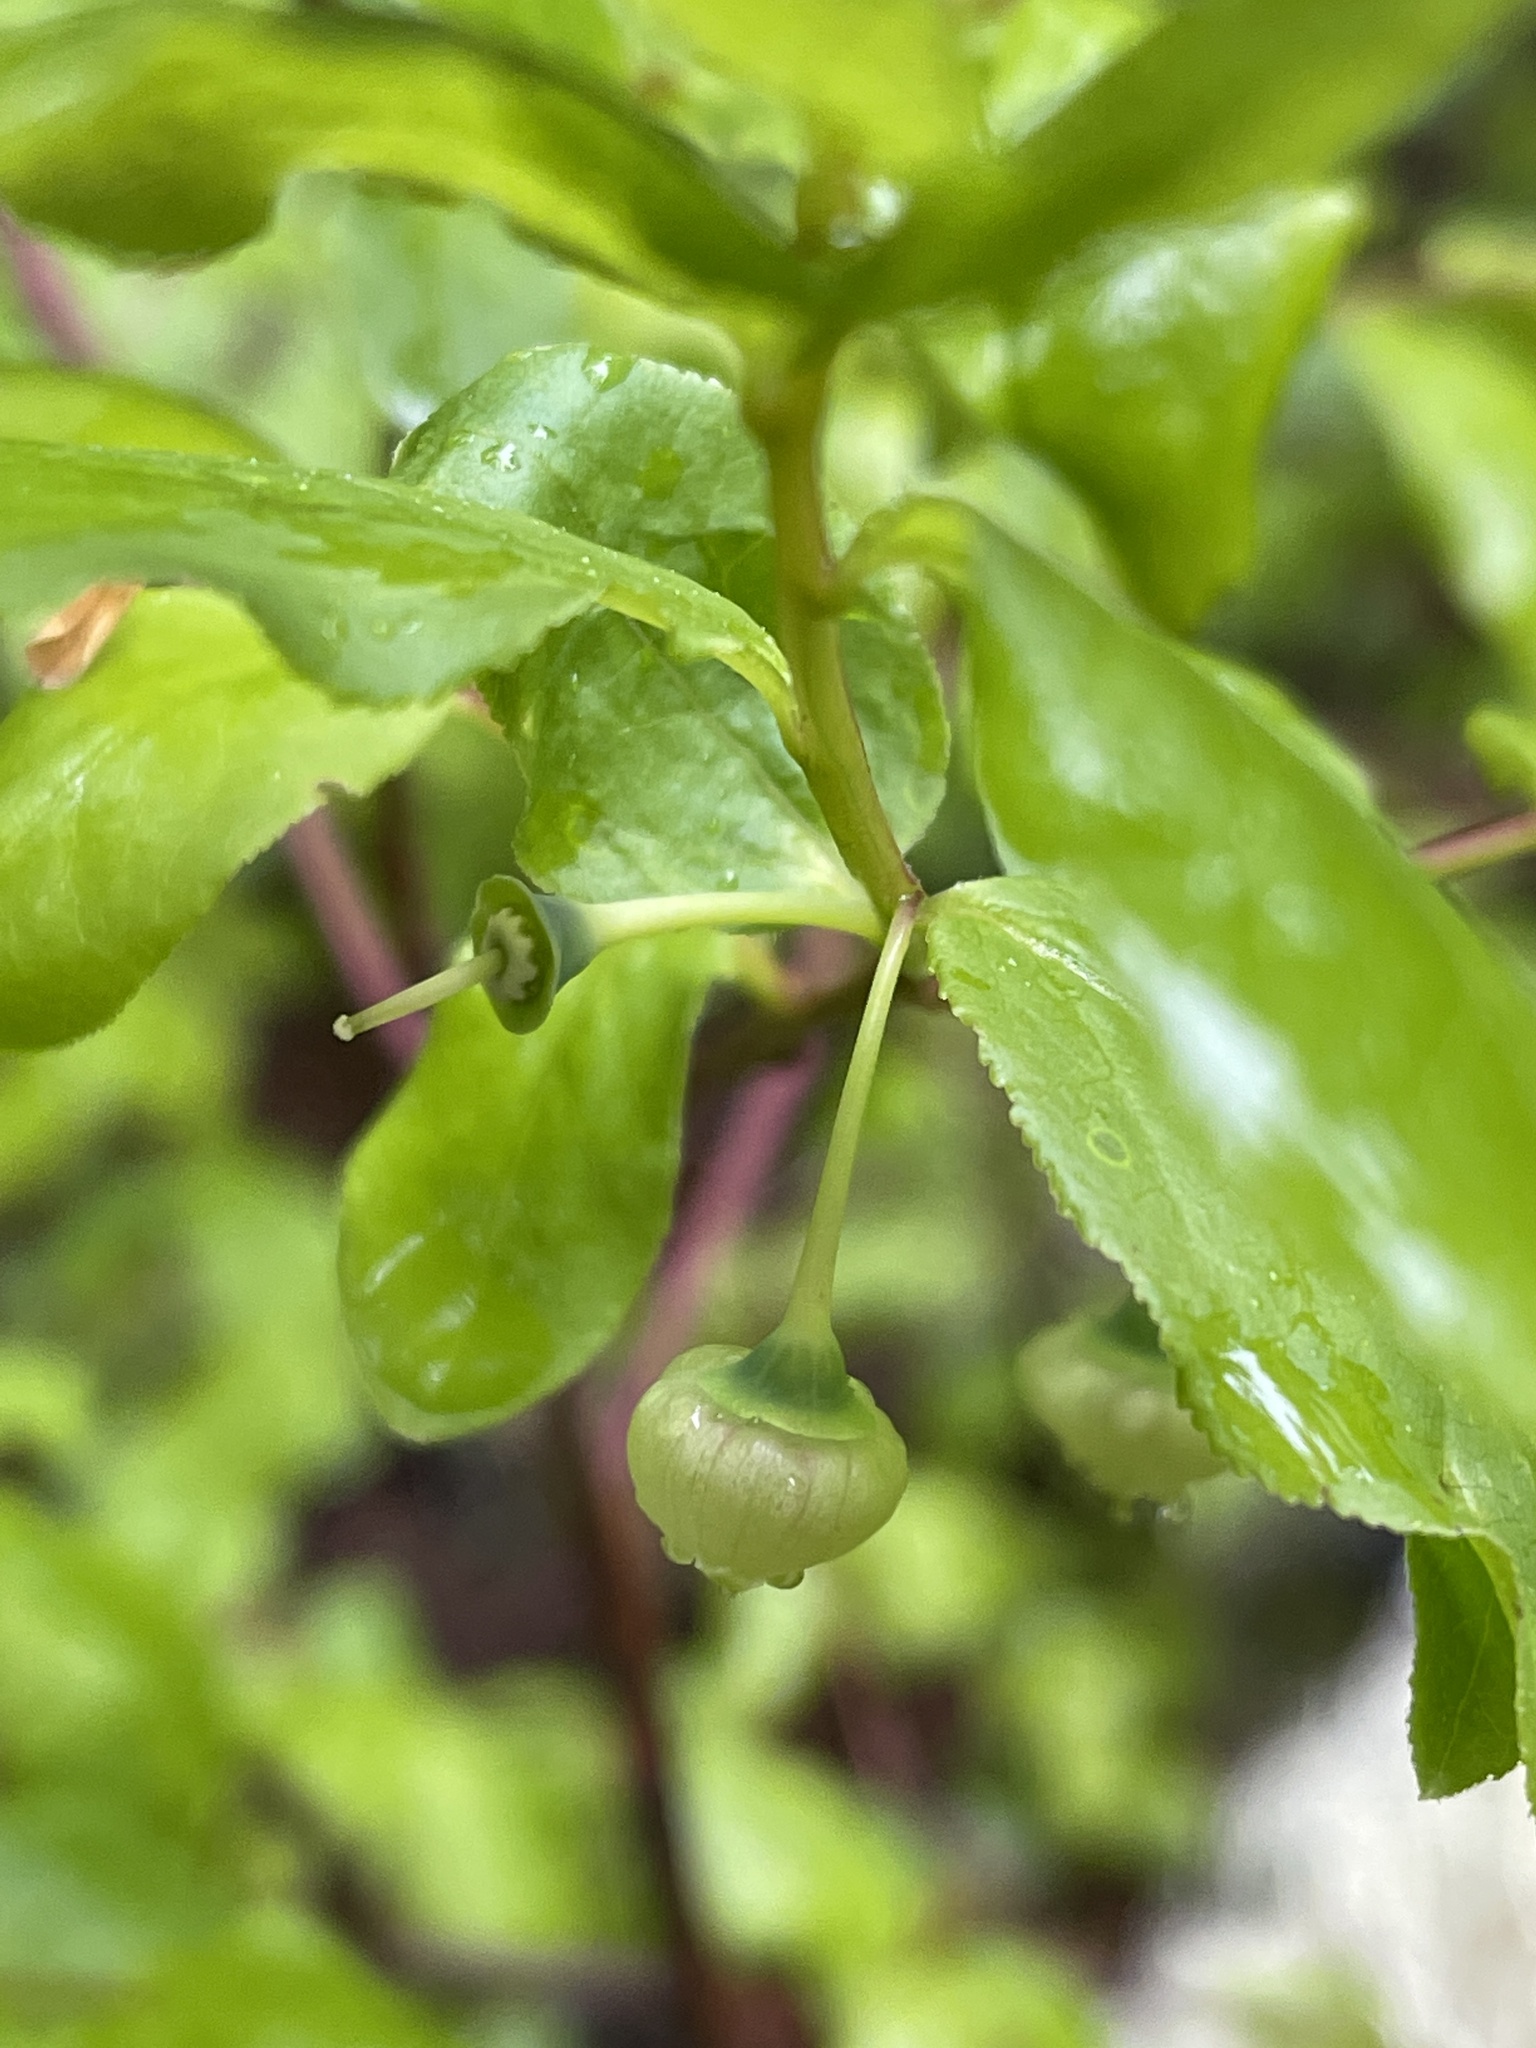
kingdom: Plantae
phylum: Tracheophyta
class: Magnoliopsida
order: Ericales
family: Ericaceae
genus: Vaccinium
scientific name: Vaccinium membranaceum
